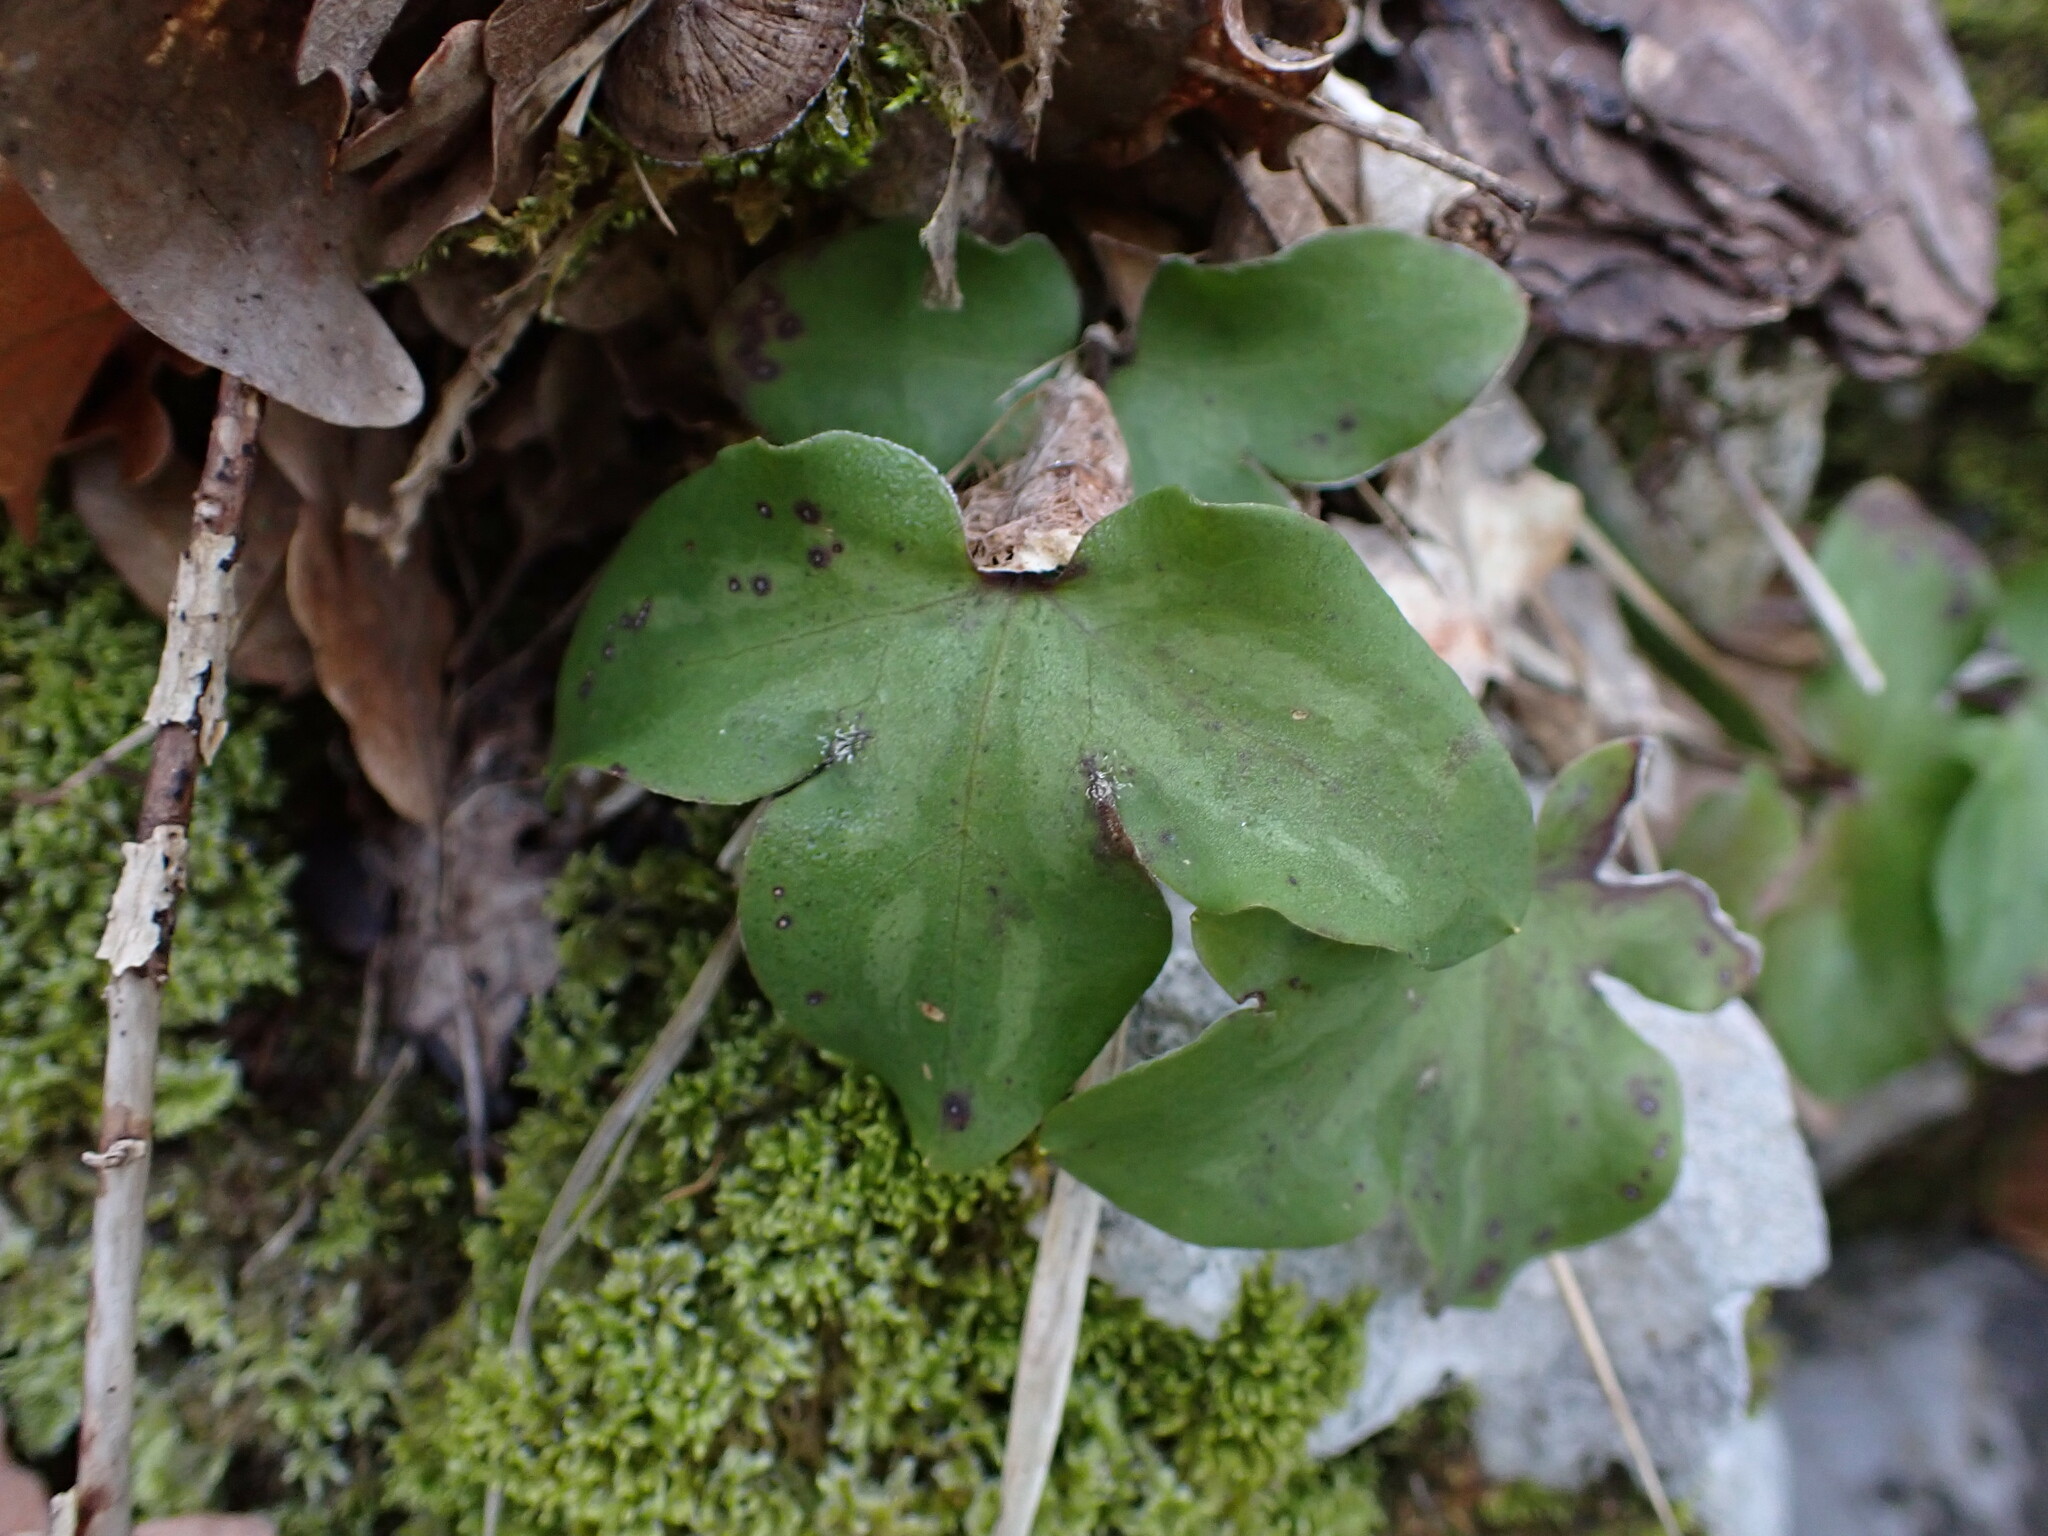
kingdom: Plantae
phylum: Tracheophyta
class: Magnoliopsida
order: Ranunculales
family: Ranunculaceae
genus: Hepatica
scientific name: Hepatica nobilis
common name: Liverleaf
